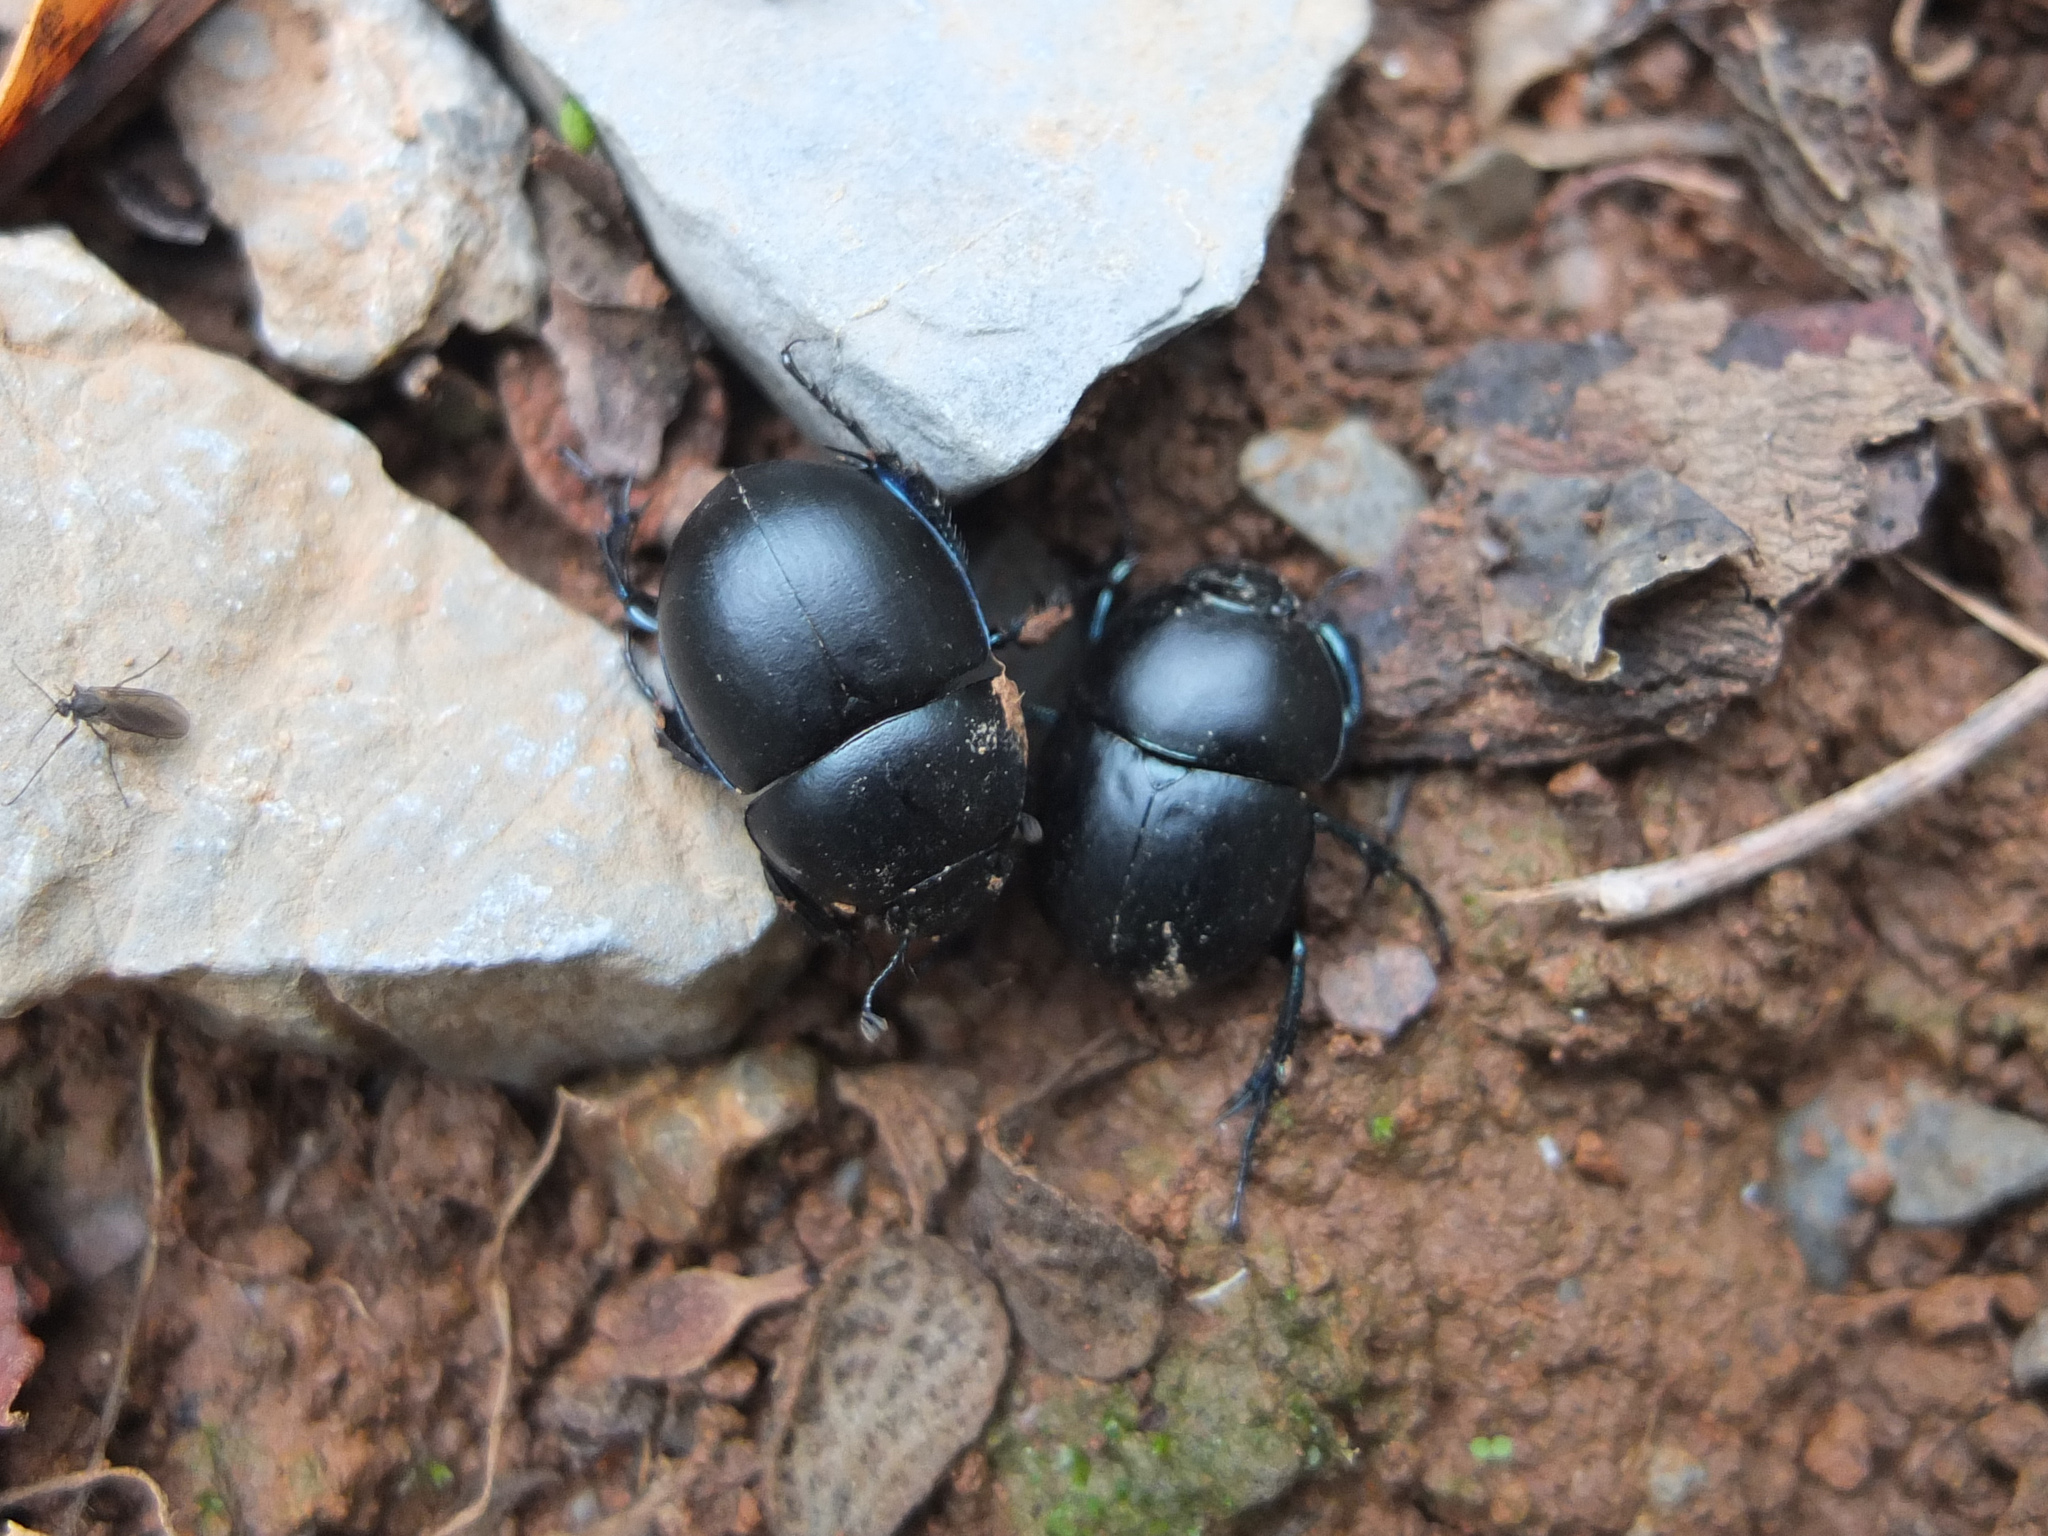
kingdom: Animalia
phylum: Arthropoda
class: Insecta
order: Coleoptera
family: Geotrupidae
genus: Thorectes
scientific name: Thorectes
